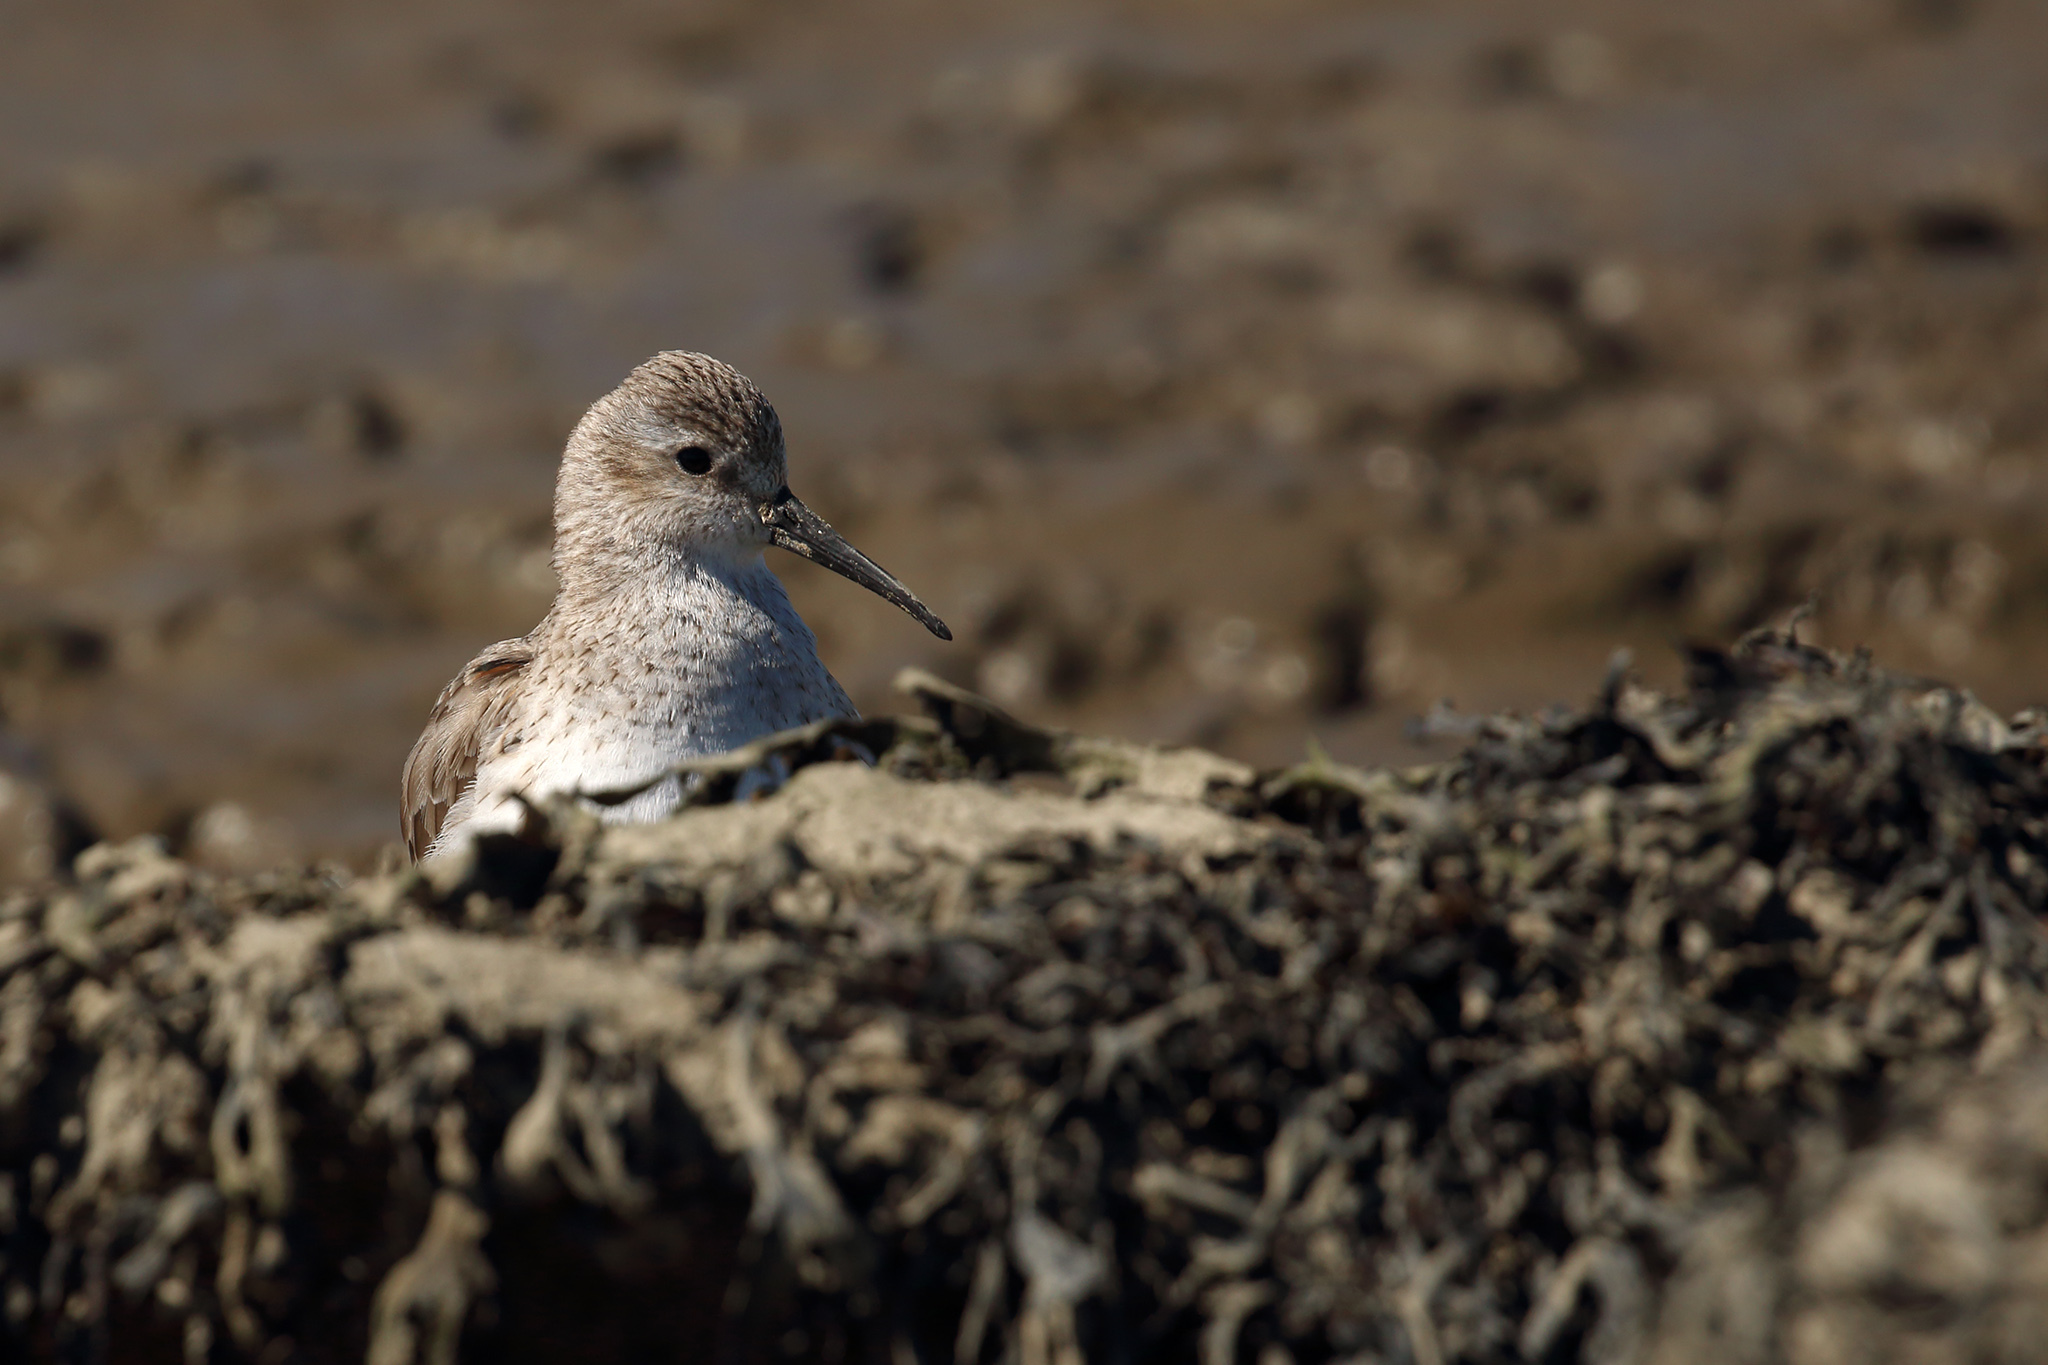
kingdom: Animalia
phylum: Chordata
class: Aves
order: Charadriiformes
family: Scolopacidae
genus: Calidris
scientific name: Calidris alpina
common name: Dunlin
